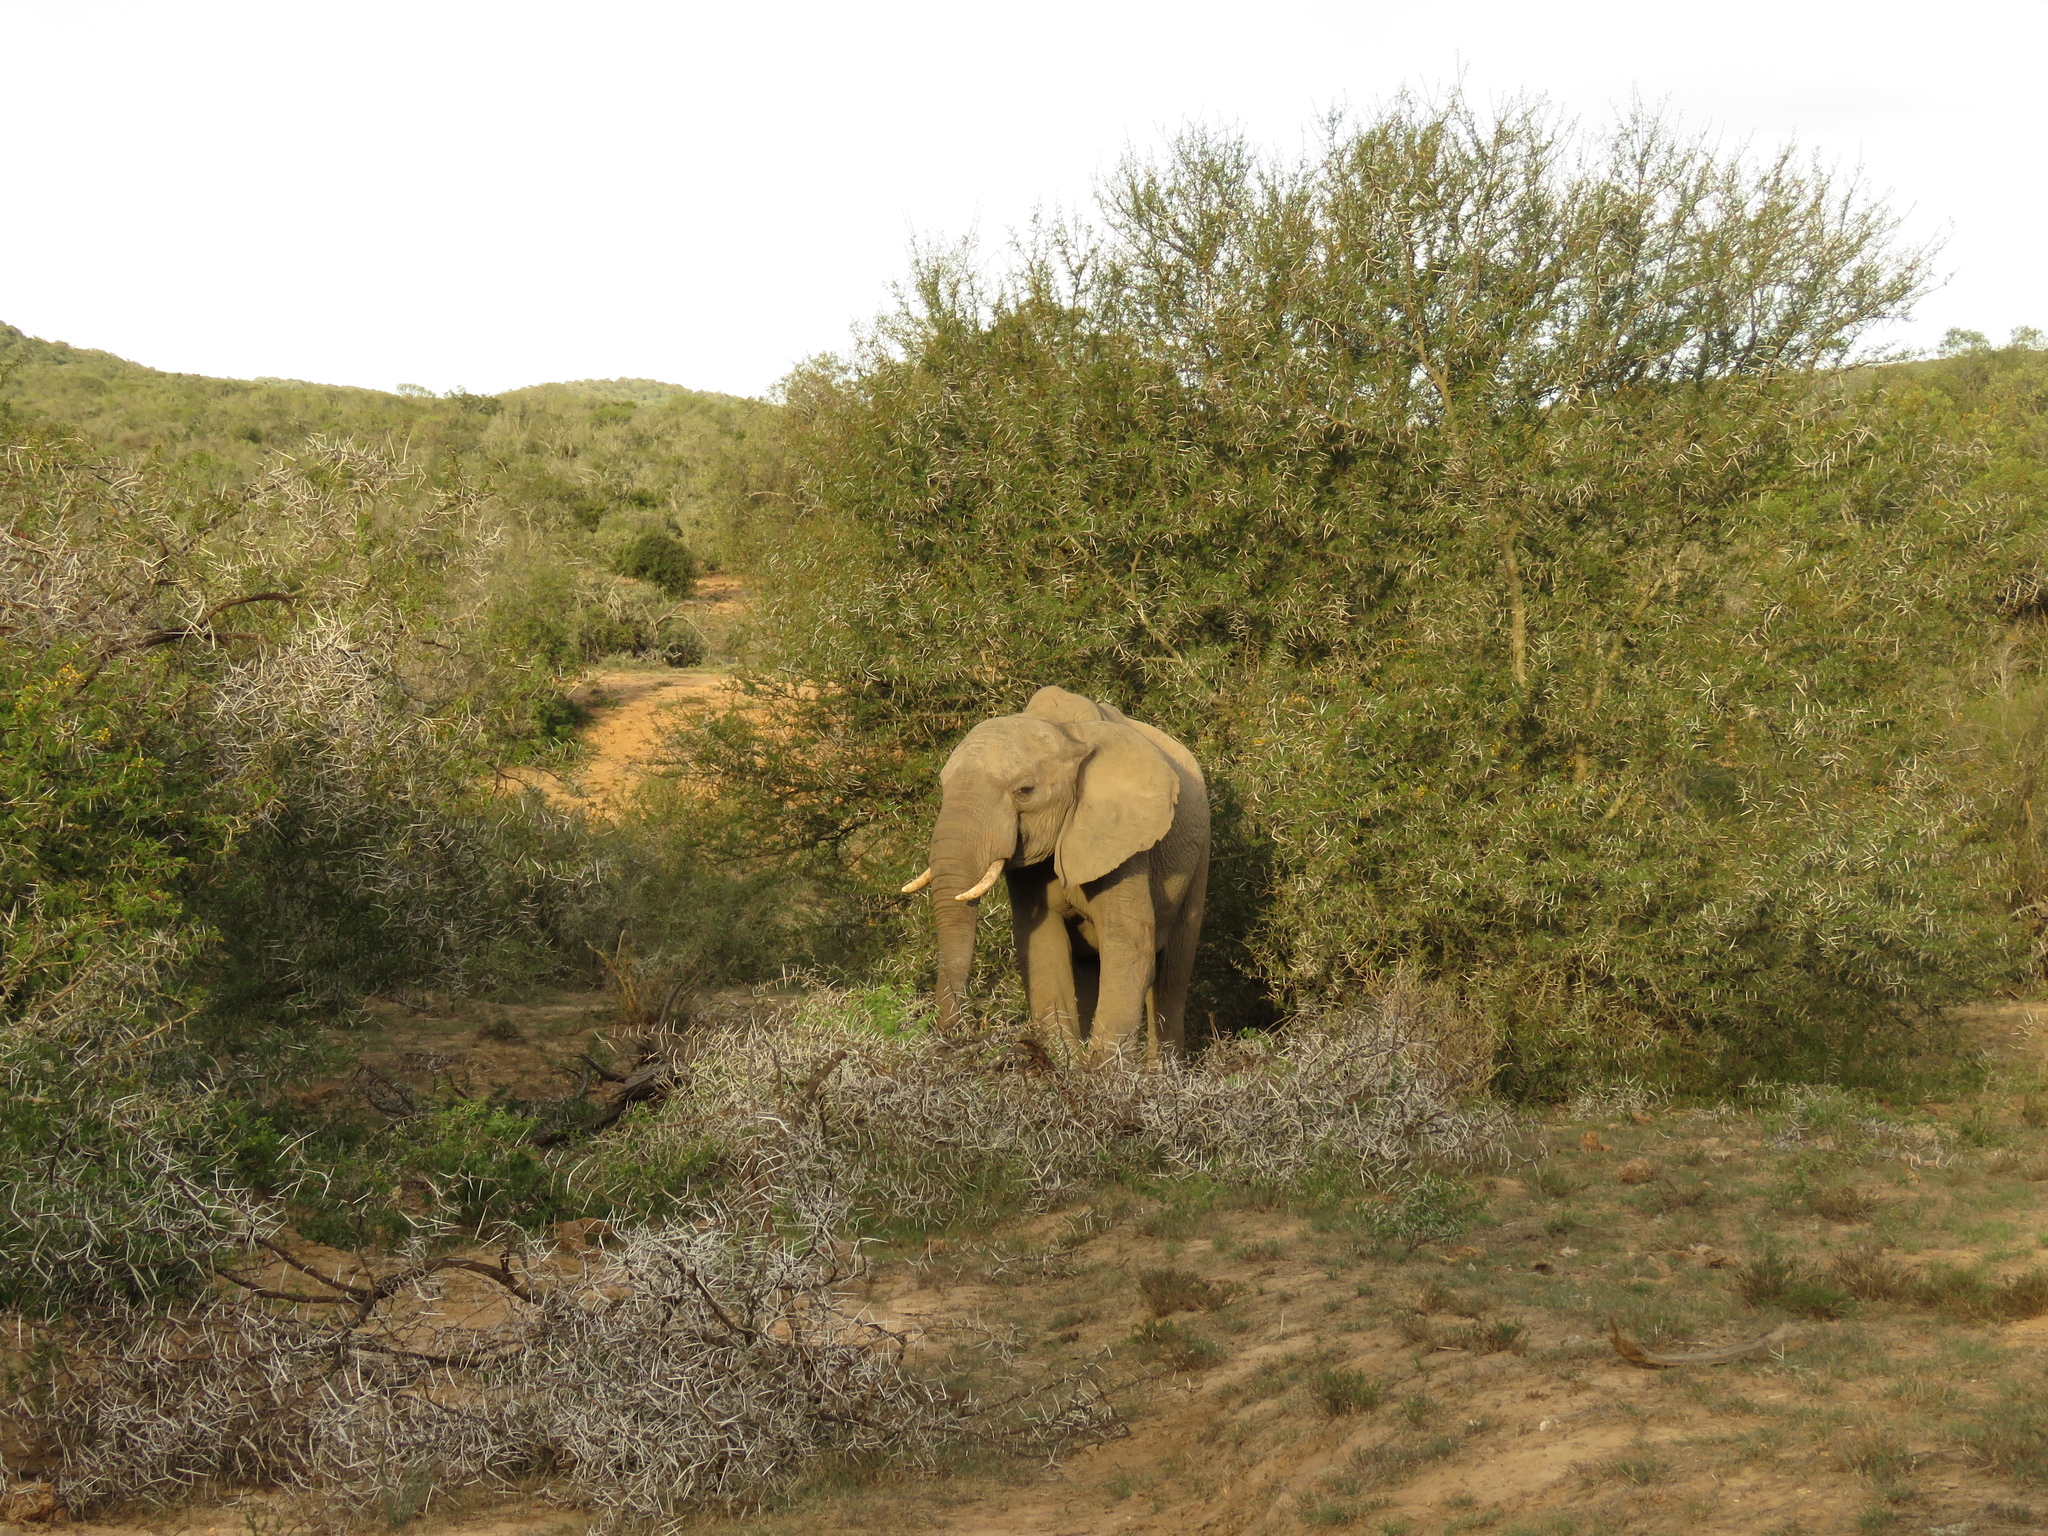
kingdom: Animalia
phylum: Chordata
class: Mammalia
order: Proboscidea
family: Elephantidae
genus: Loxodonta
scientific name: Loxodonta africana
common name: African elephant
